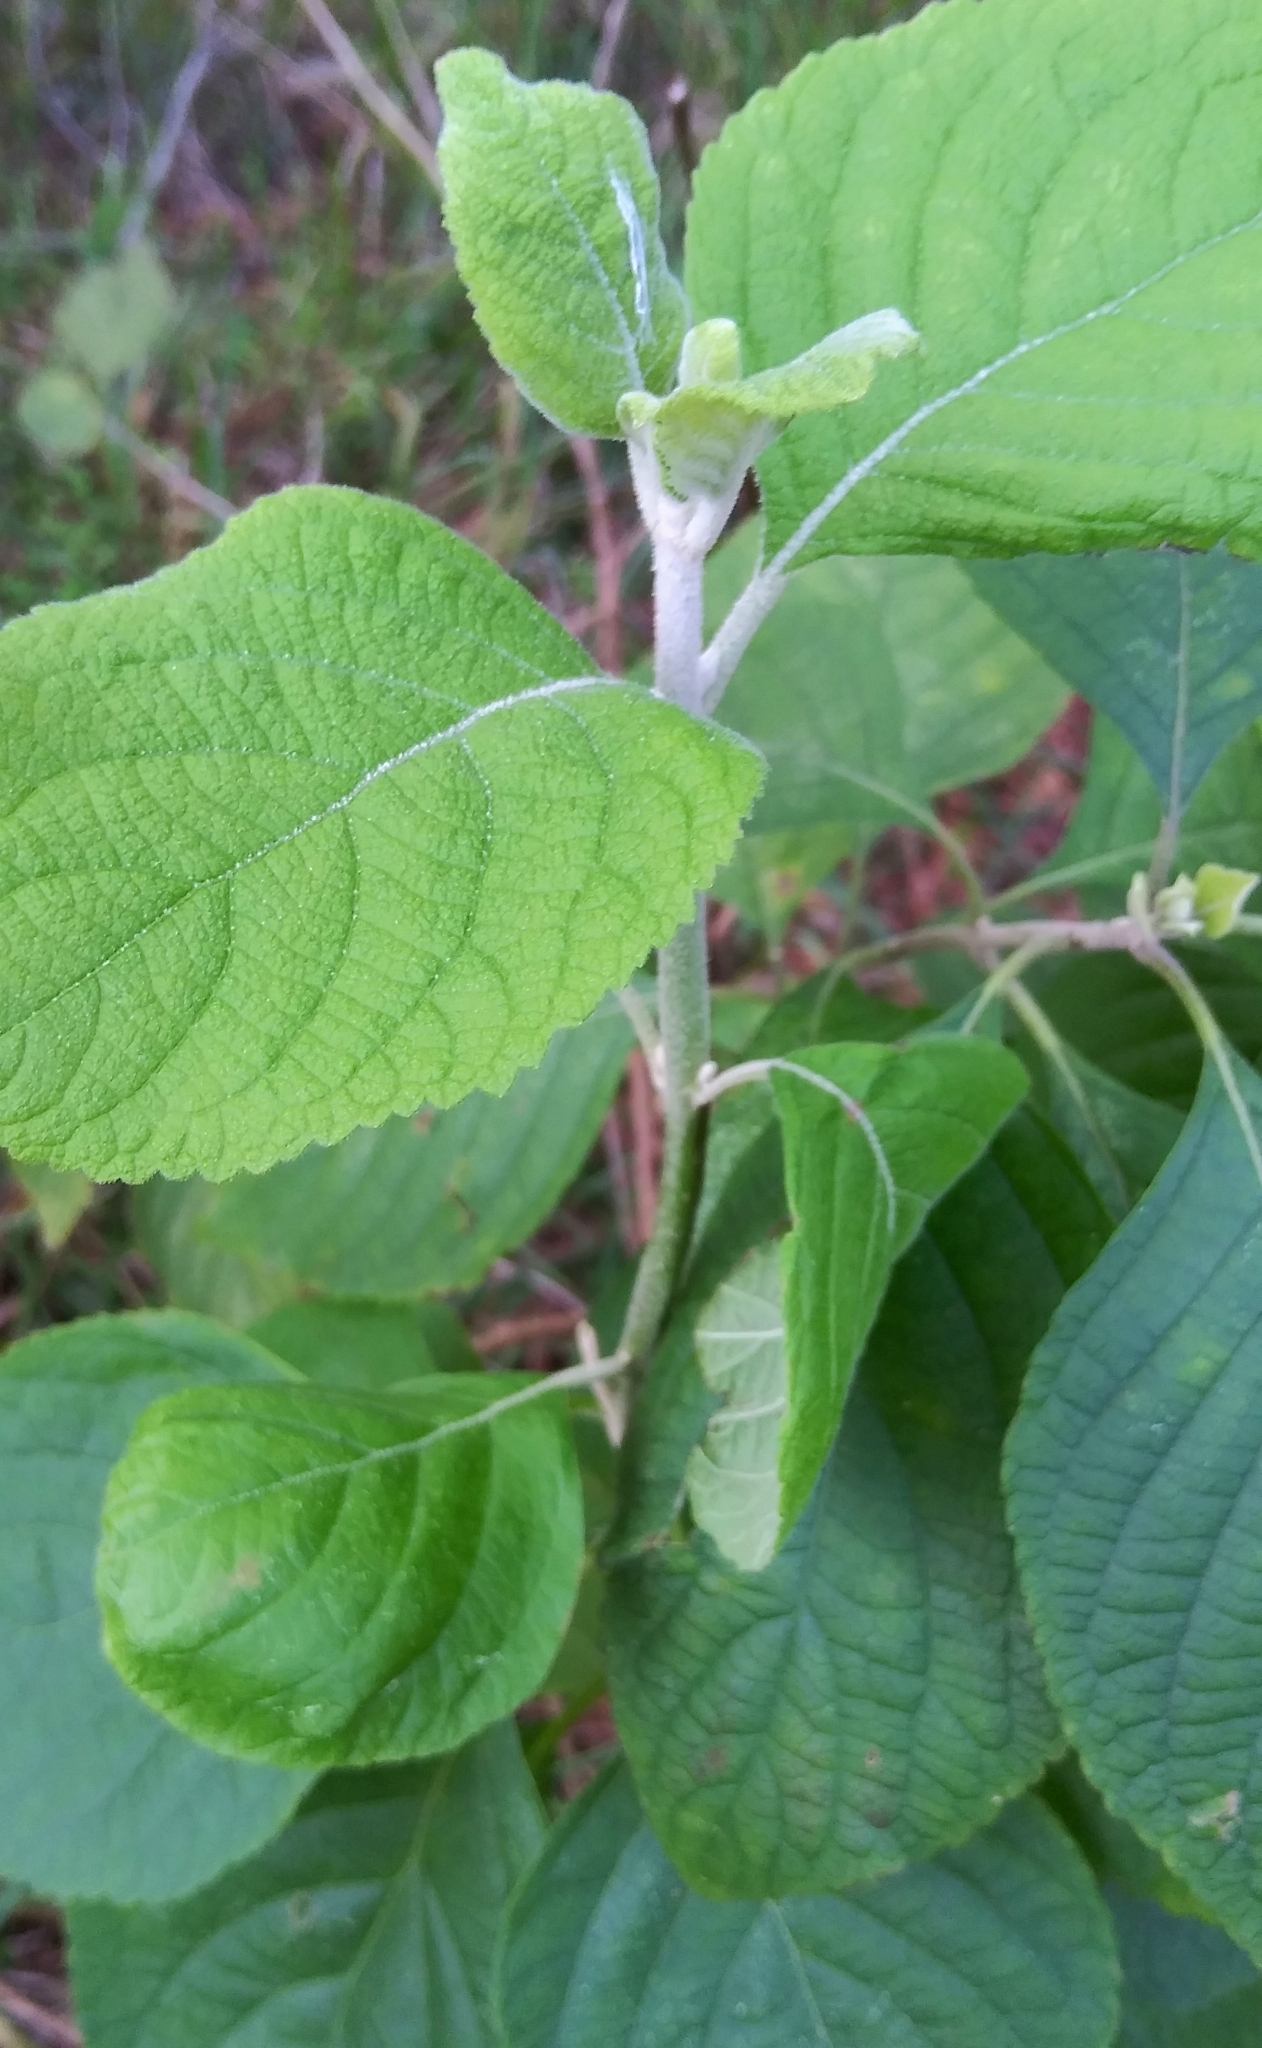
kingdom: Plantae
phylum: Tracheophyta
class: Magnoliopsida
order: Lamiales
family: Lamiaceae
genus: Callicarpa
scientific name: Callicarpa americana
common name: American beautyberry
